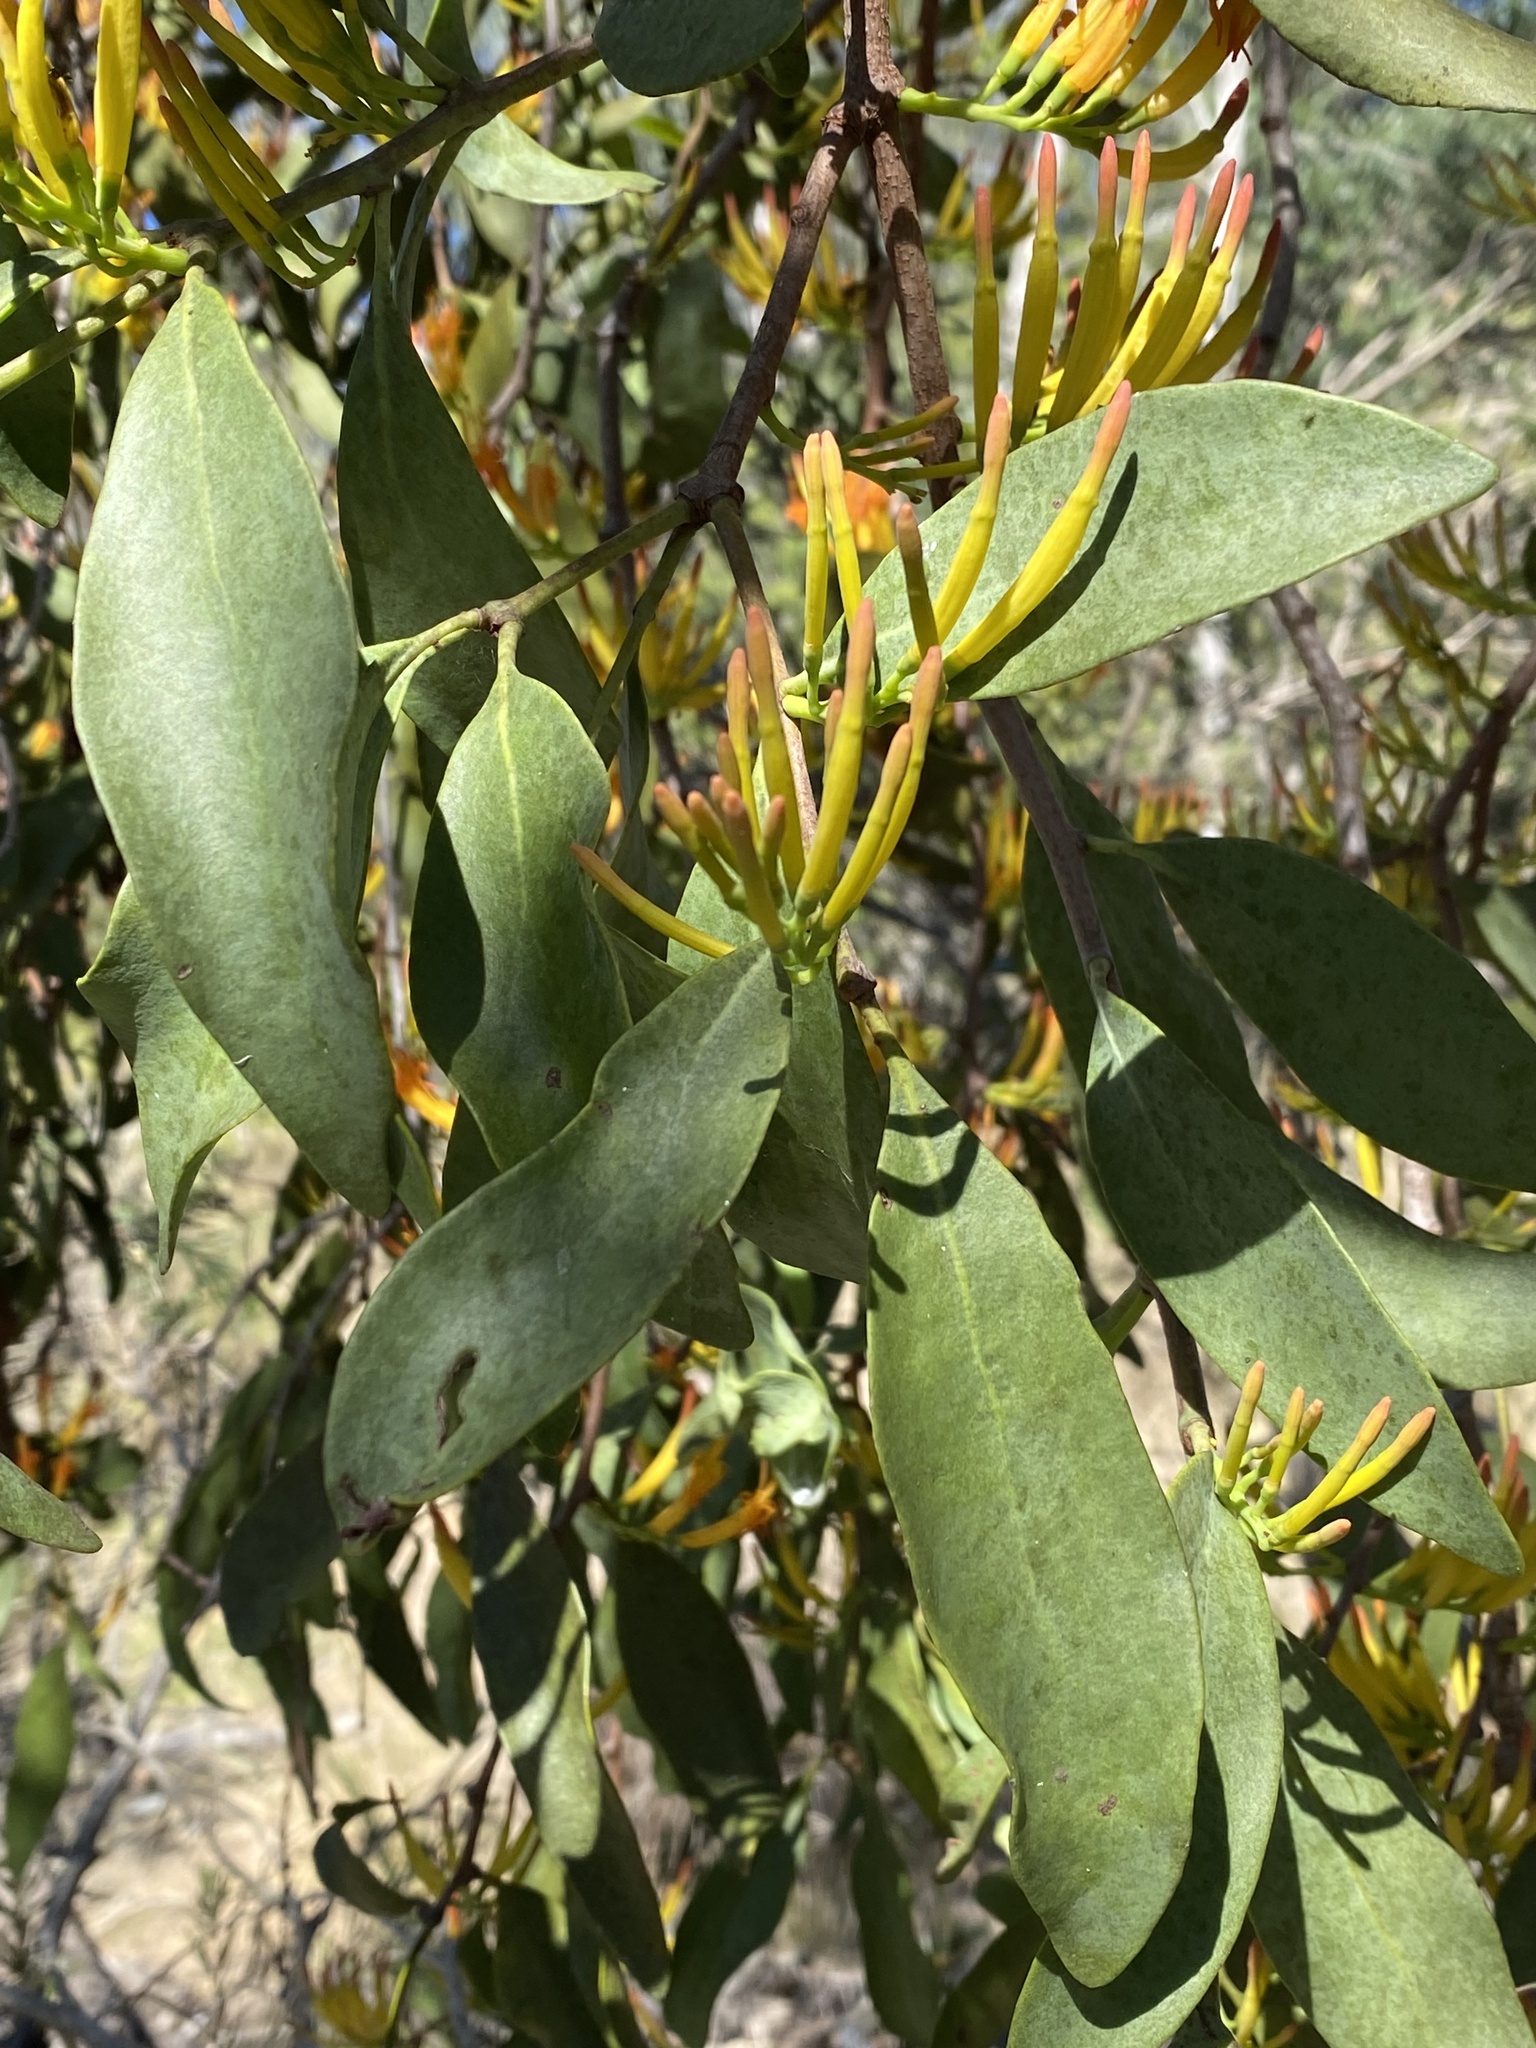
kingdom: Plantae
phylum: Tracheophyta
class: Magnoliopsida
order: Santalales
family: Loranthaceae
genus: Dendrophthoe
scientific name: Dendrophthoe glabrescens
